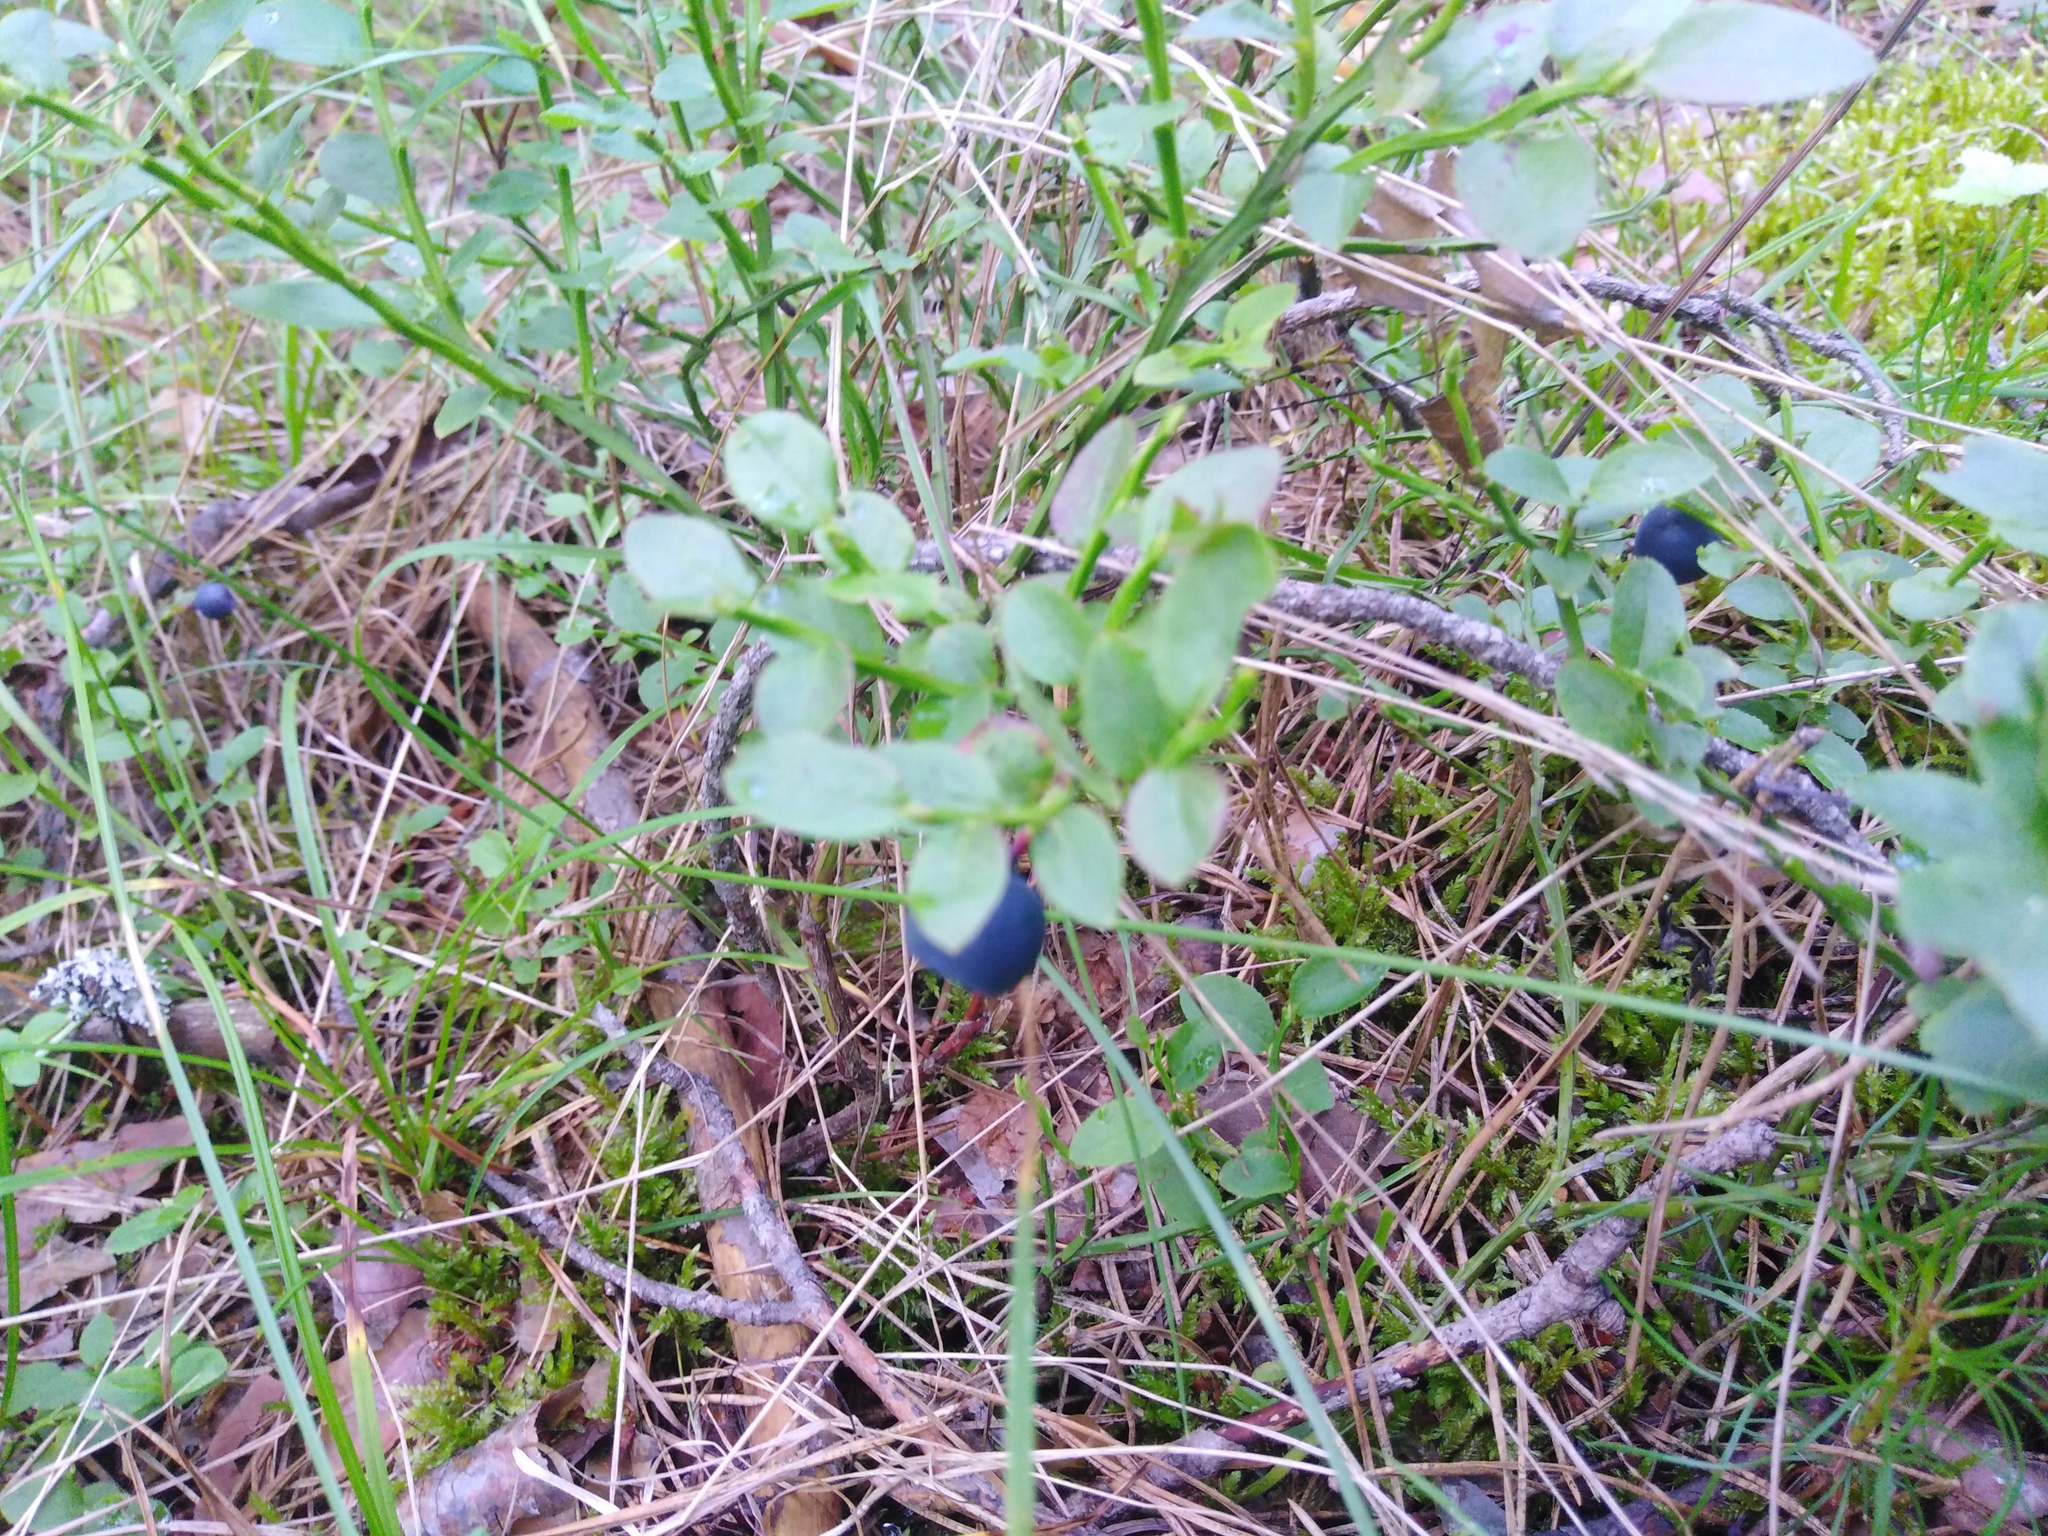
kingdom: Plantae
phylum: Tracheophyta
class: Magnoliopsida
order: Ericales
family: Ericaceae
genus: Vaccinium
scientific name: Vaccinium myrtillus
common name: Bilberry
